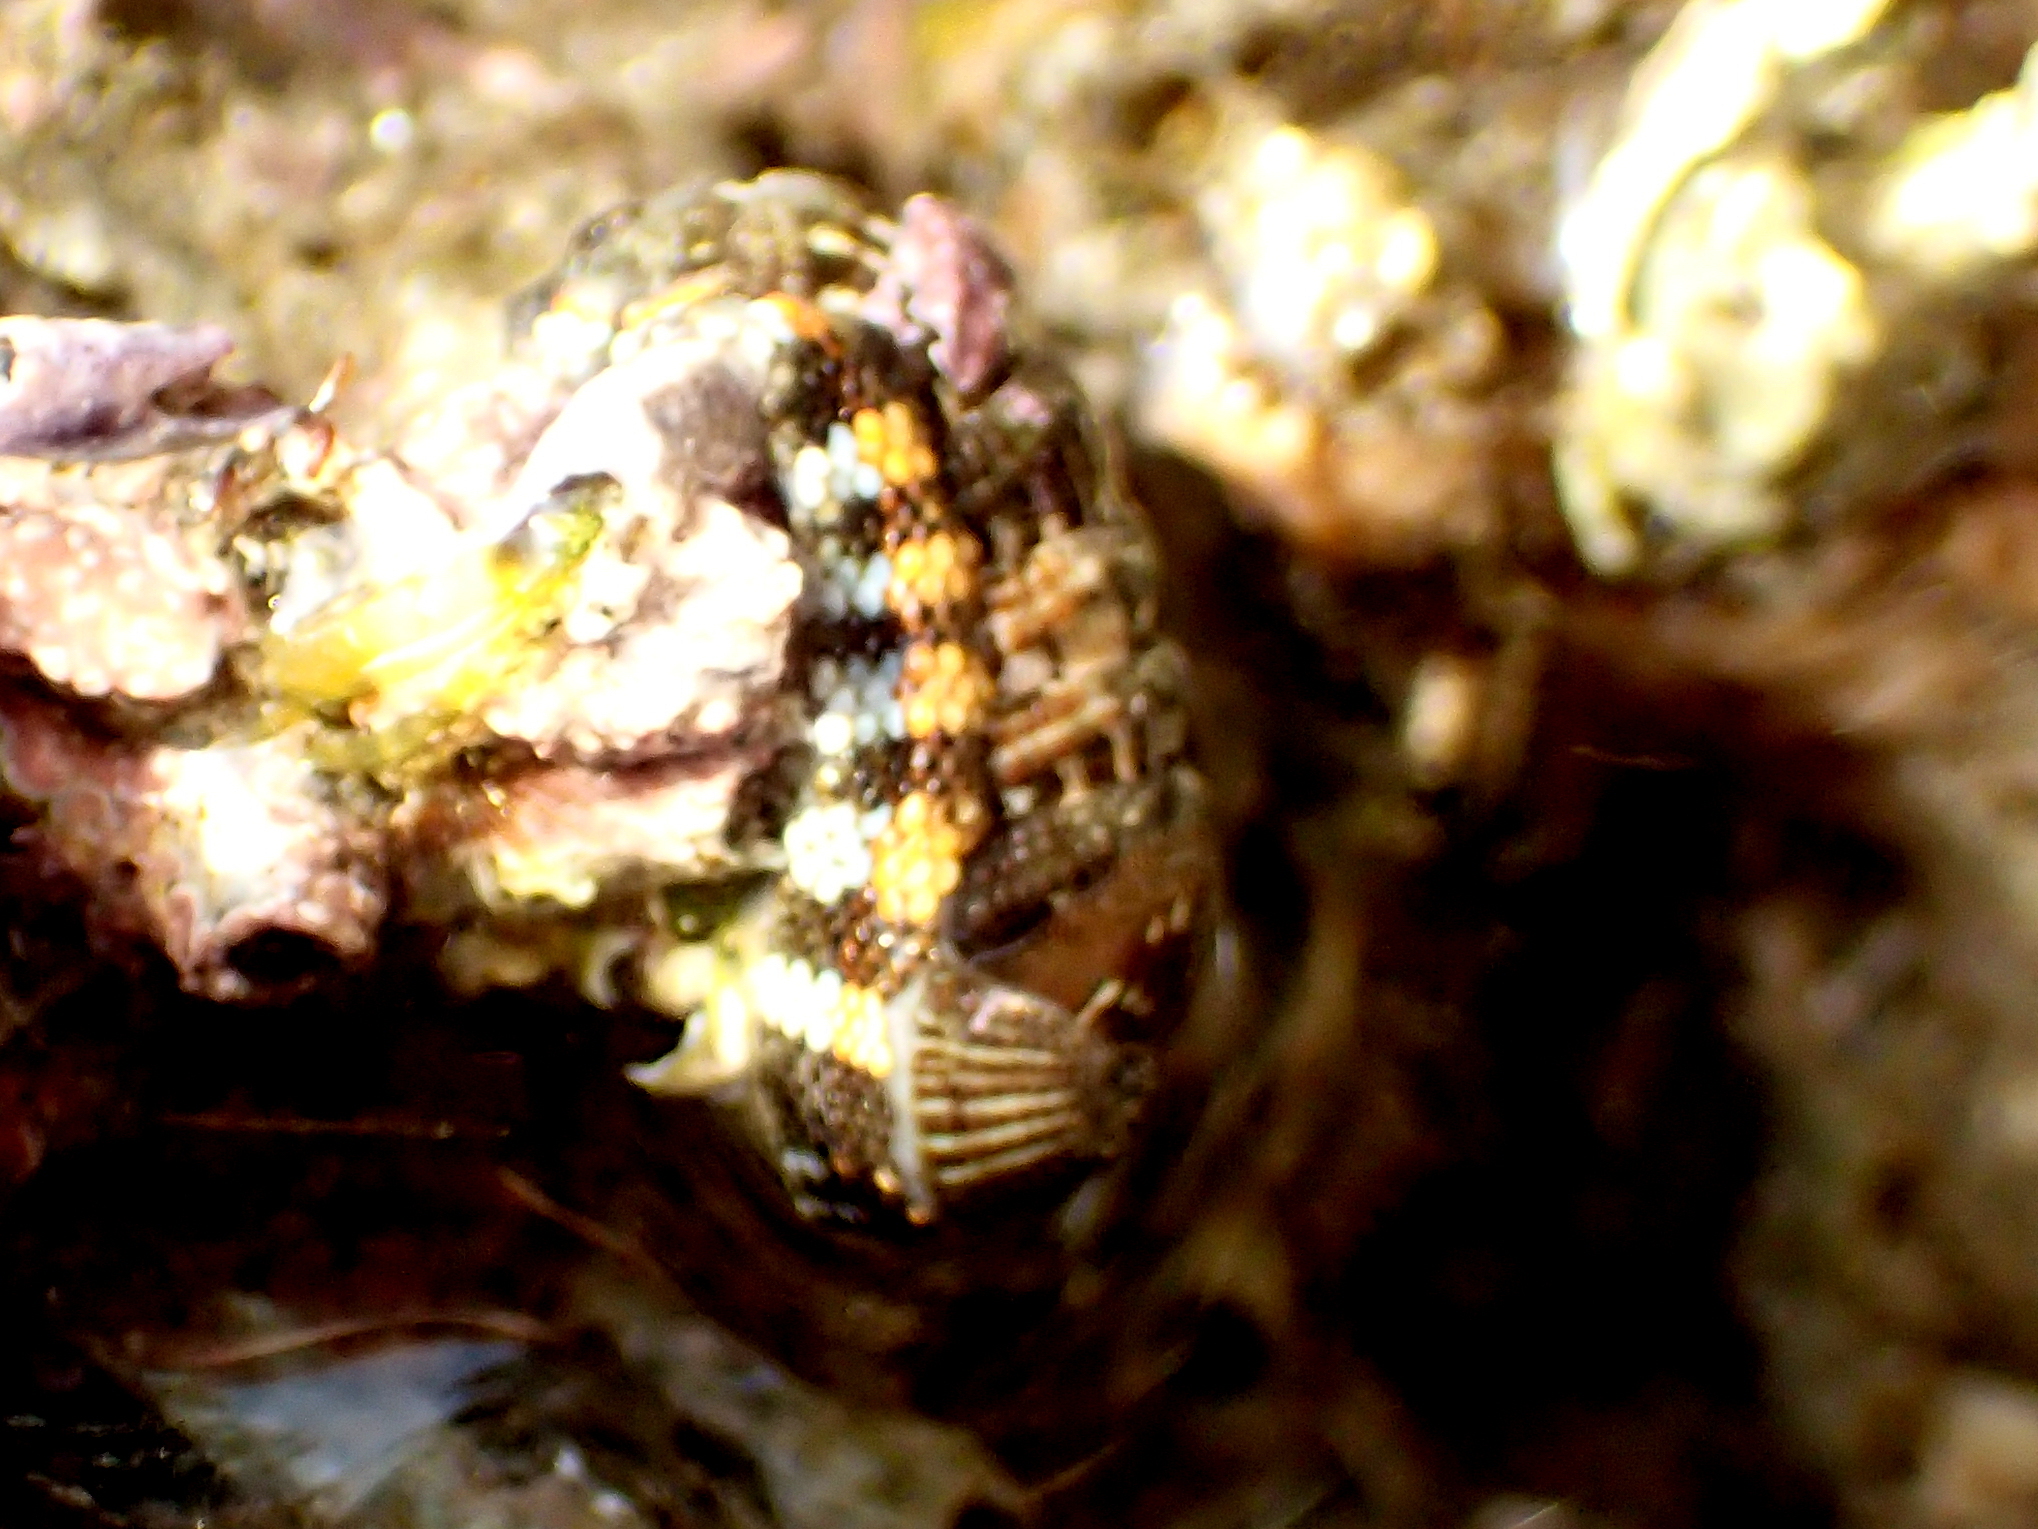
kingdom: Animalia
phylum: Mollusca
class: Polyplacophora
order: Chitonida
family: Chitonidae
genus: Sypharochiton
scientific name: Sypharochiton pelliserpentis
